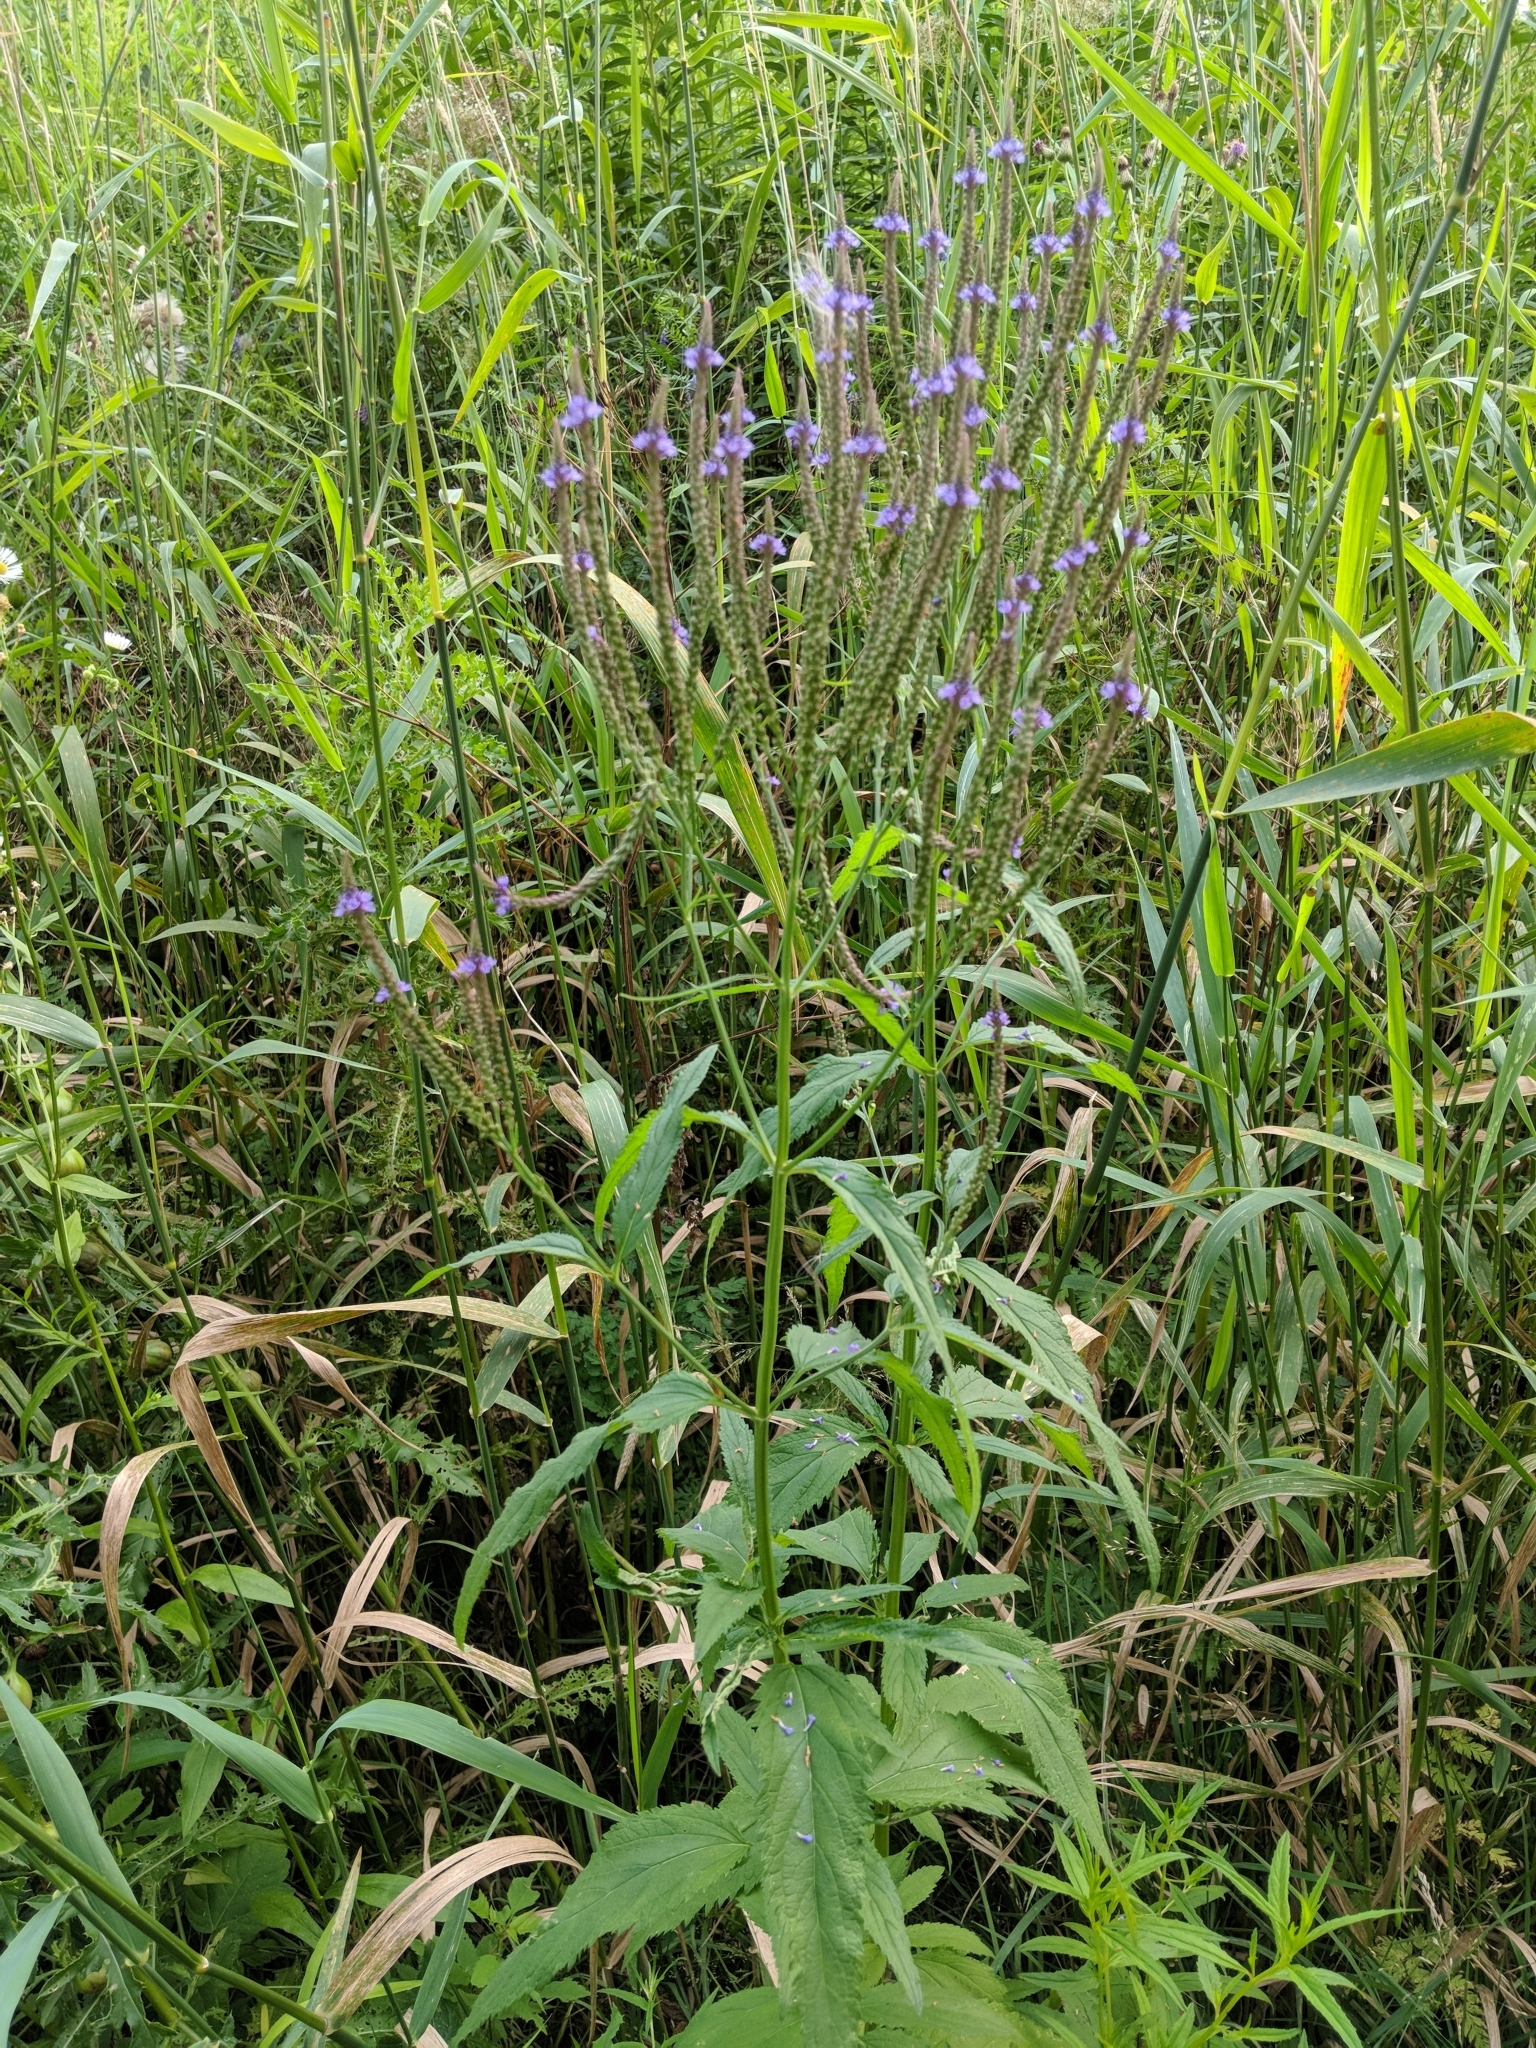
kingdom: Plantae
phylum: Tracheophyta
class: Magnoliopsida
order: Lamiales
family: Verbenaceae
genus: Verbena
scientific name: Verbena hastata
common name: American blue vervain
